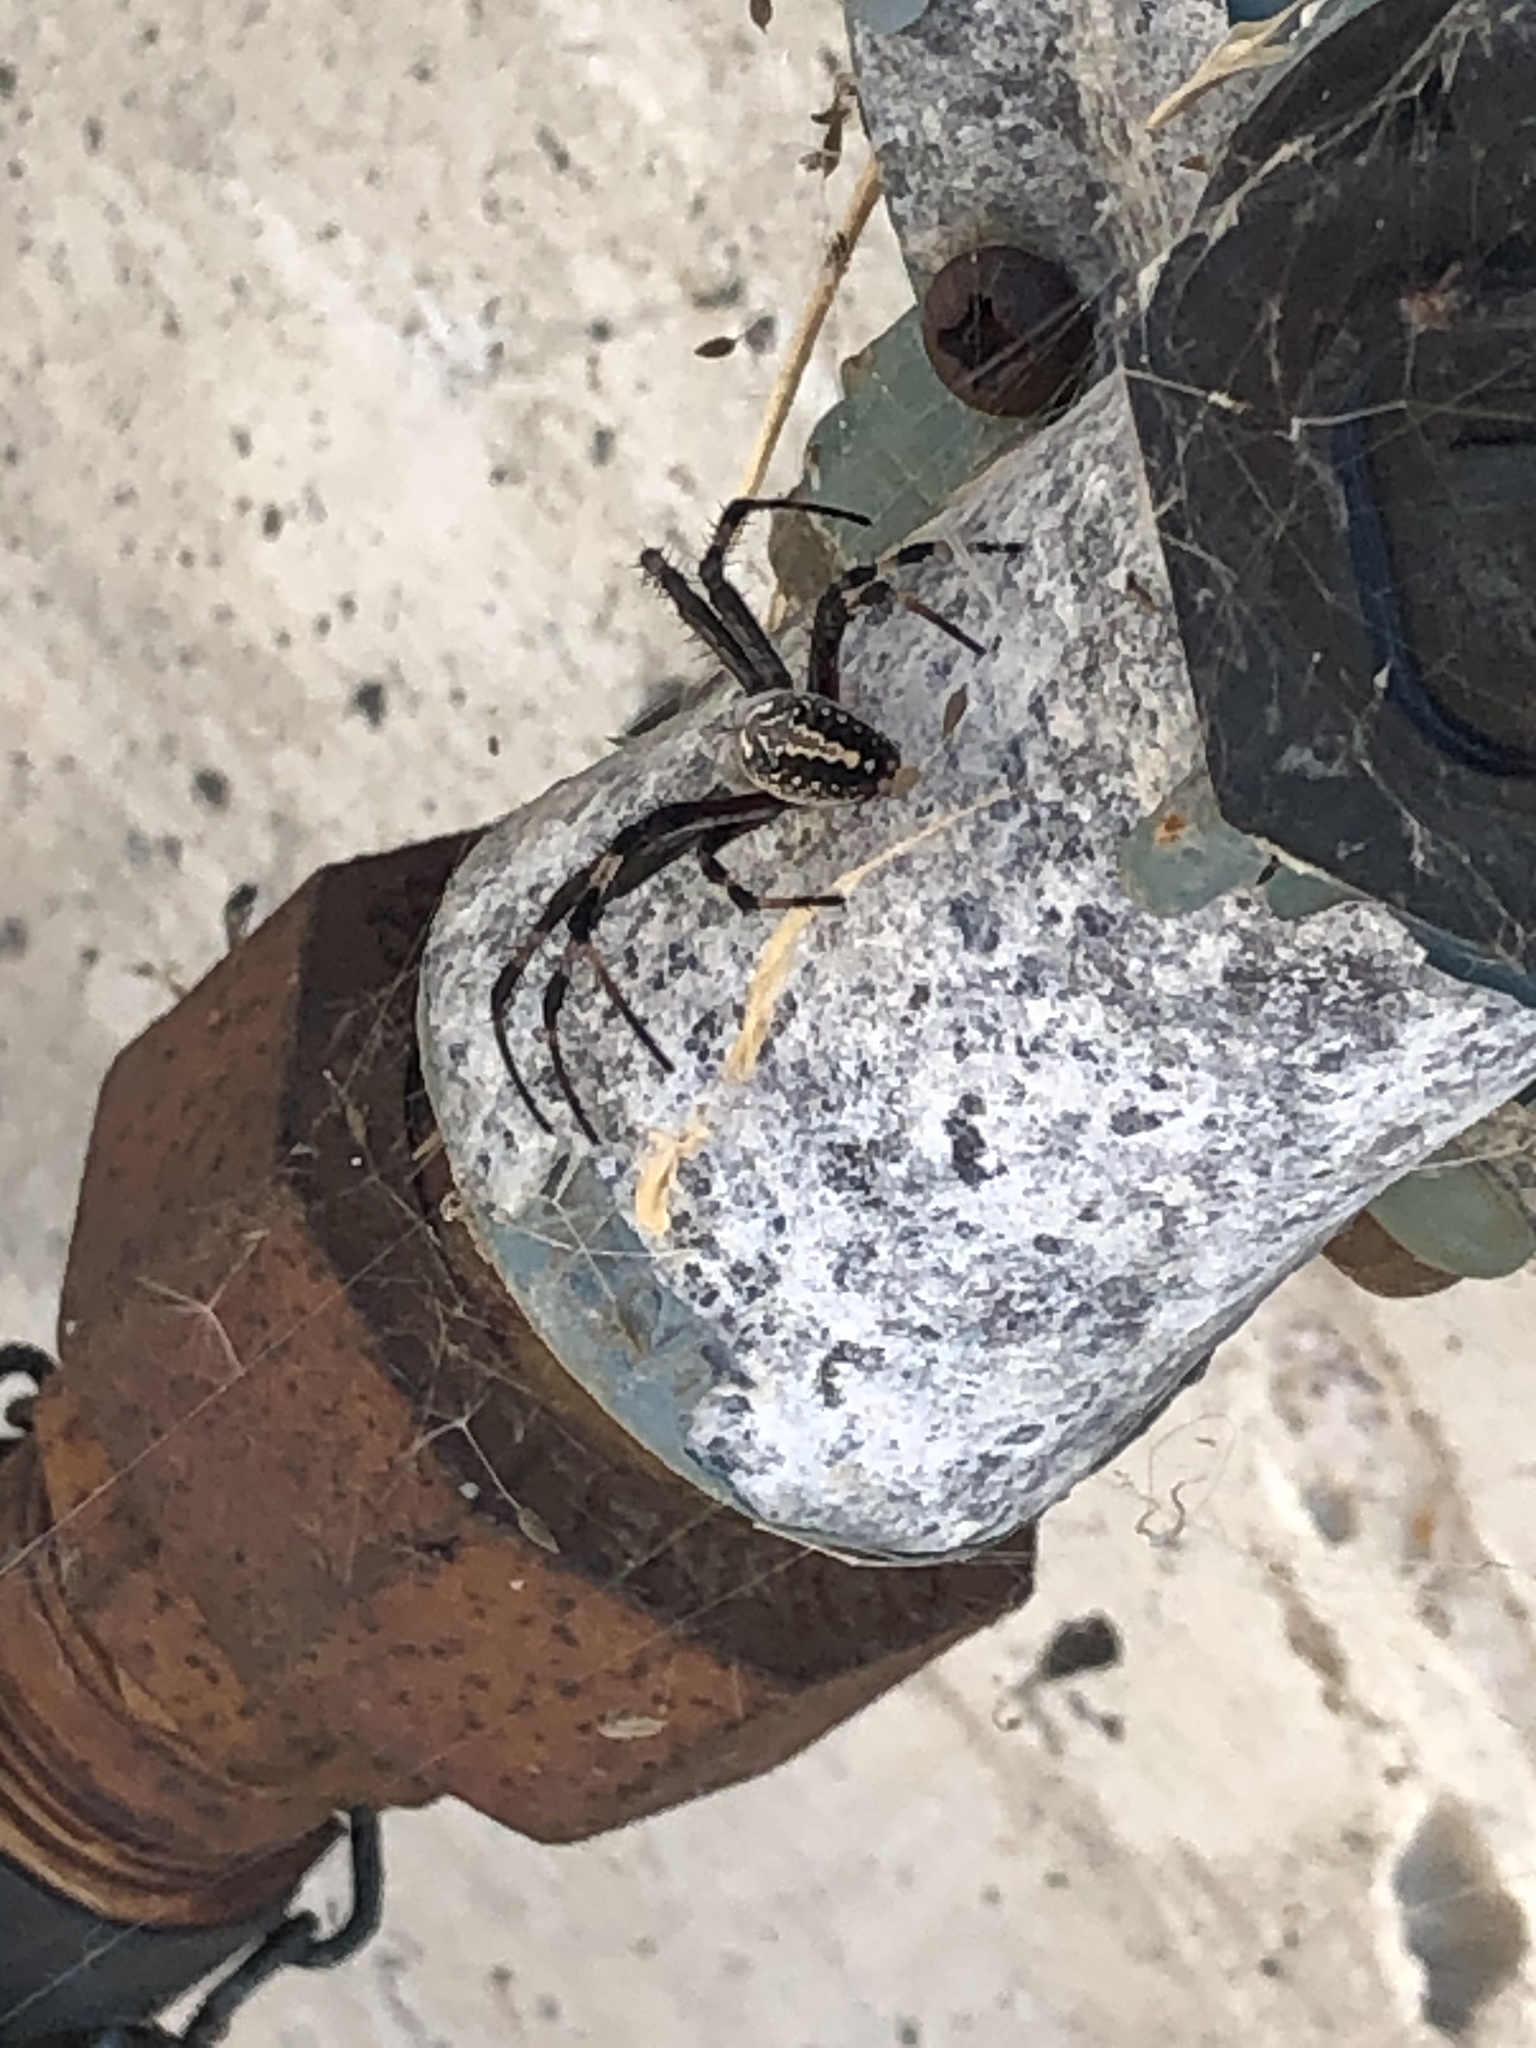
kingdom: Animalia
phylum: Arthropoda
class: Arachnida
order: Araneae
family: Araneidae
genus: Neoscona
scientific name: Neoscona oaxacensis
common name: Orb weavers
